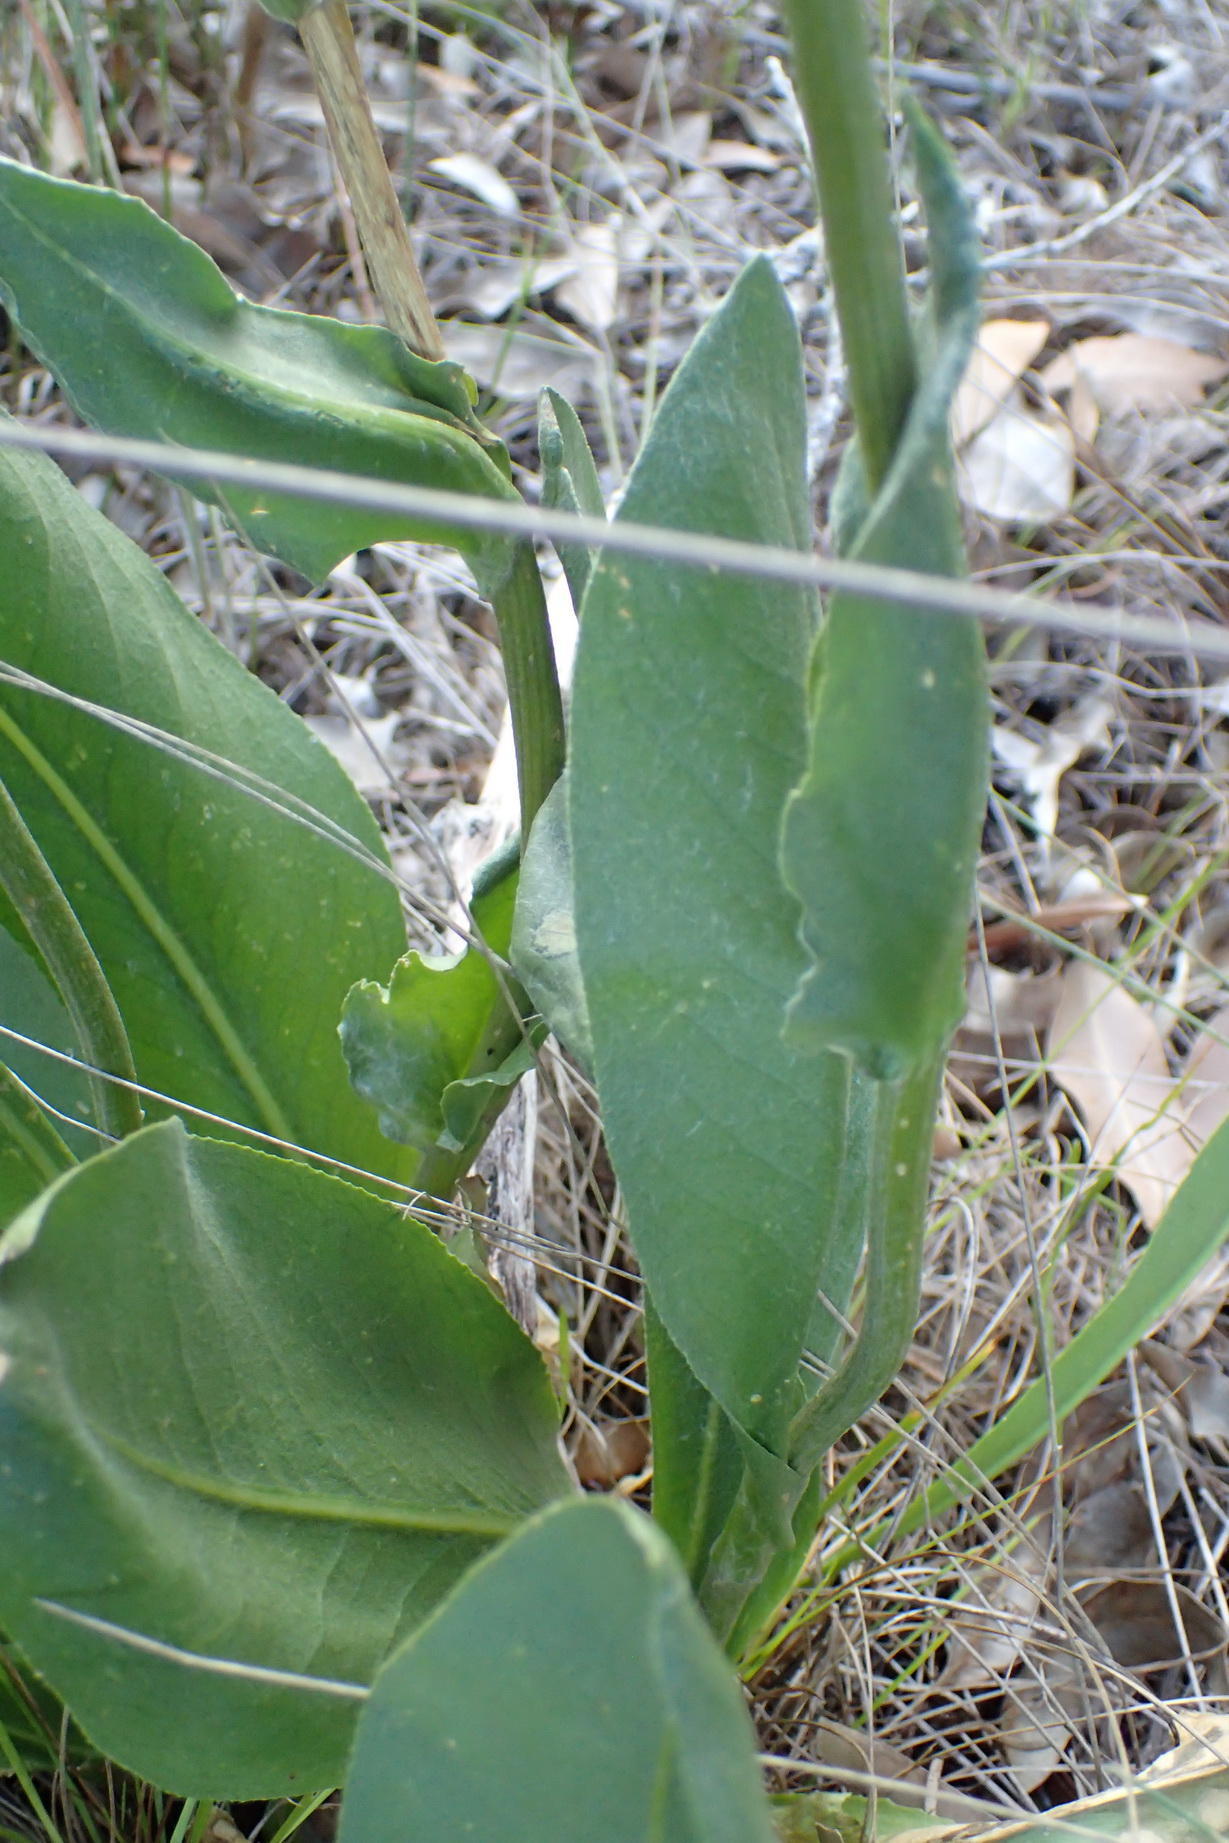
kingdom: Plantae
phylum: Tracheophyta
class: Magnoliopsida
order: Asterales
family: Asteraceae
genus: Senecio
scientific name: Senecio coronatus
